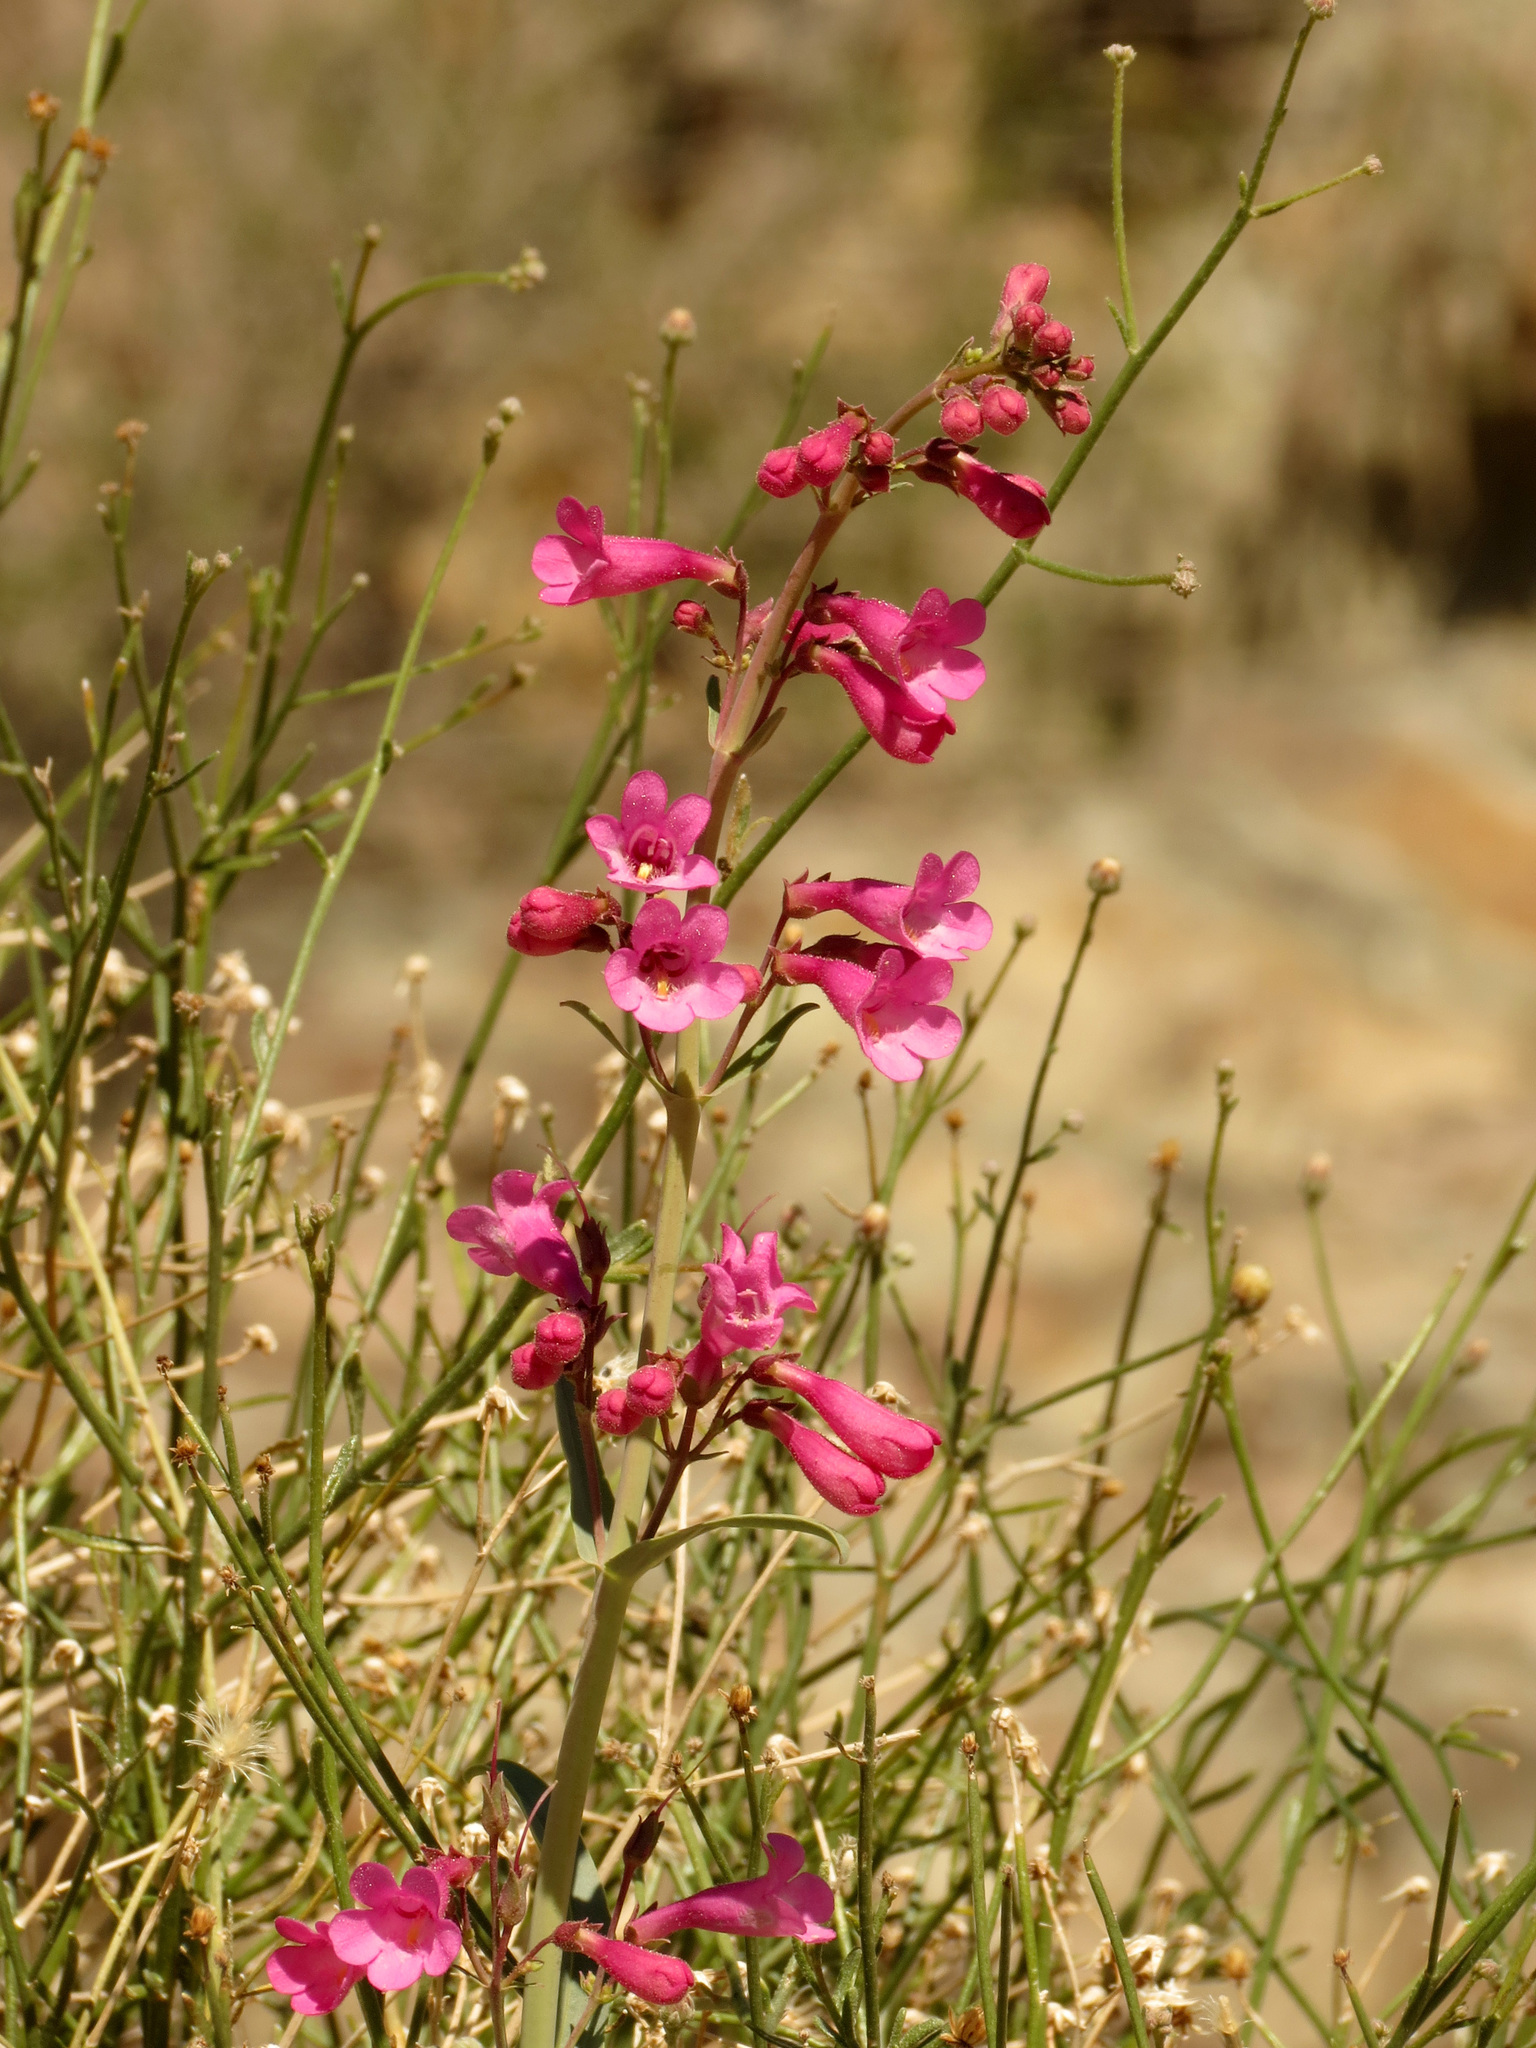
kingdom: Plantae
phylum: Tracheophyta
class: Magnoliopsida
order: Lamiales
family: Plantaginaceae
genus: Penstemon
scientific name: Penstemon parryi
